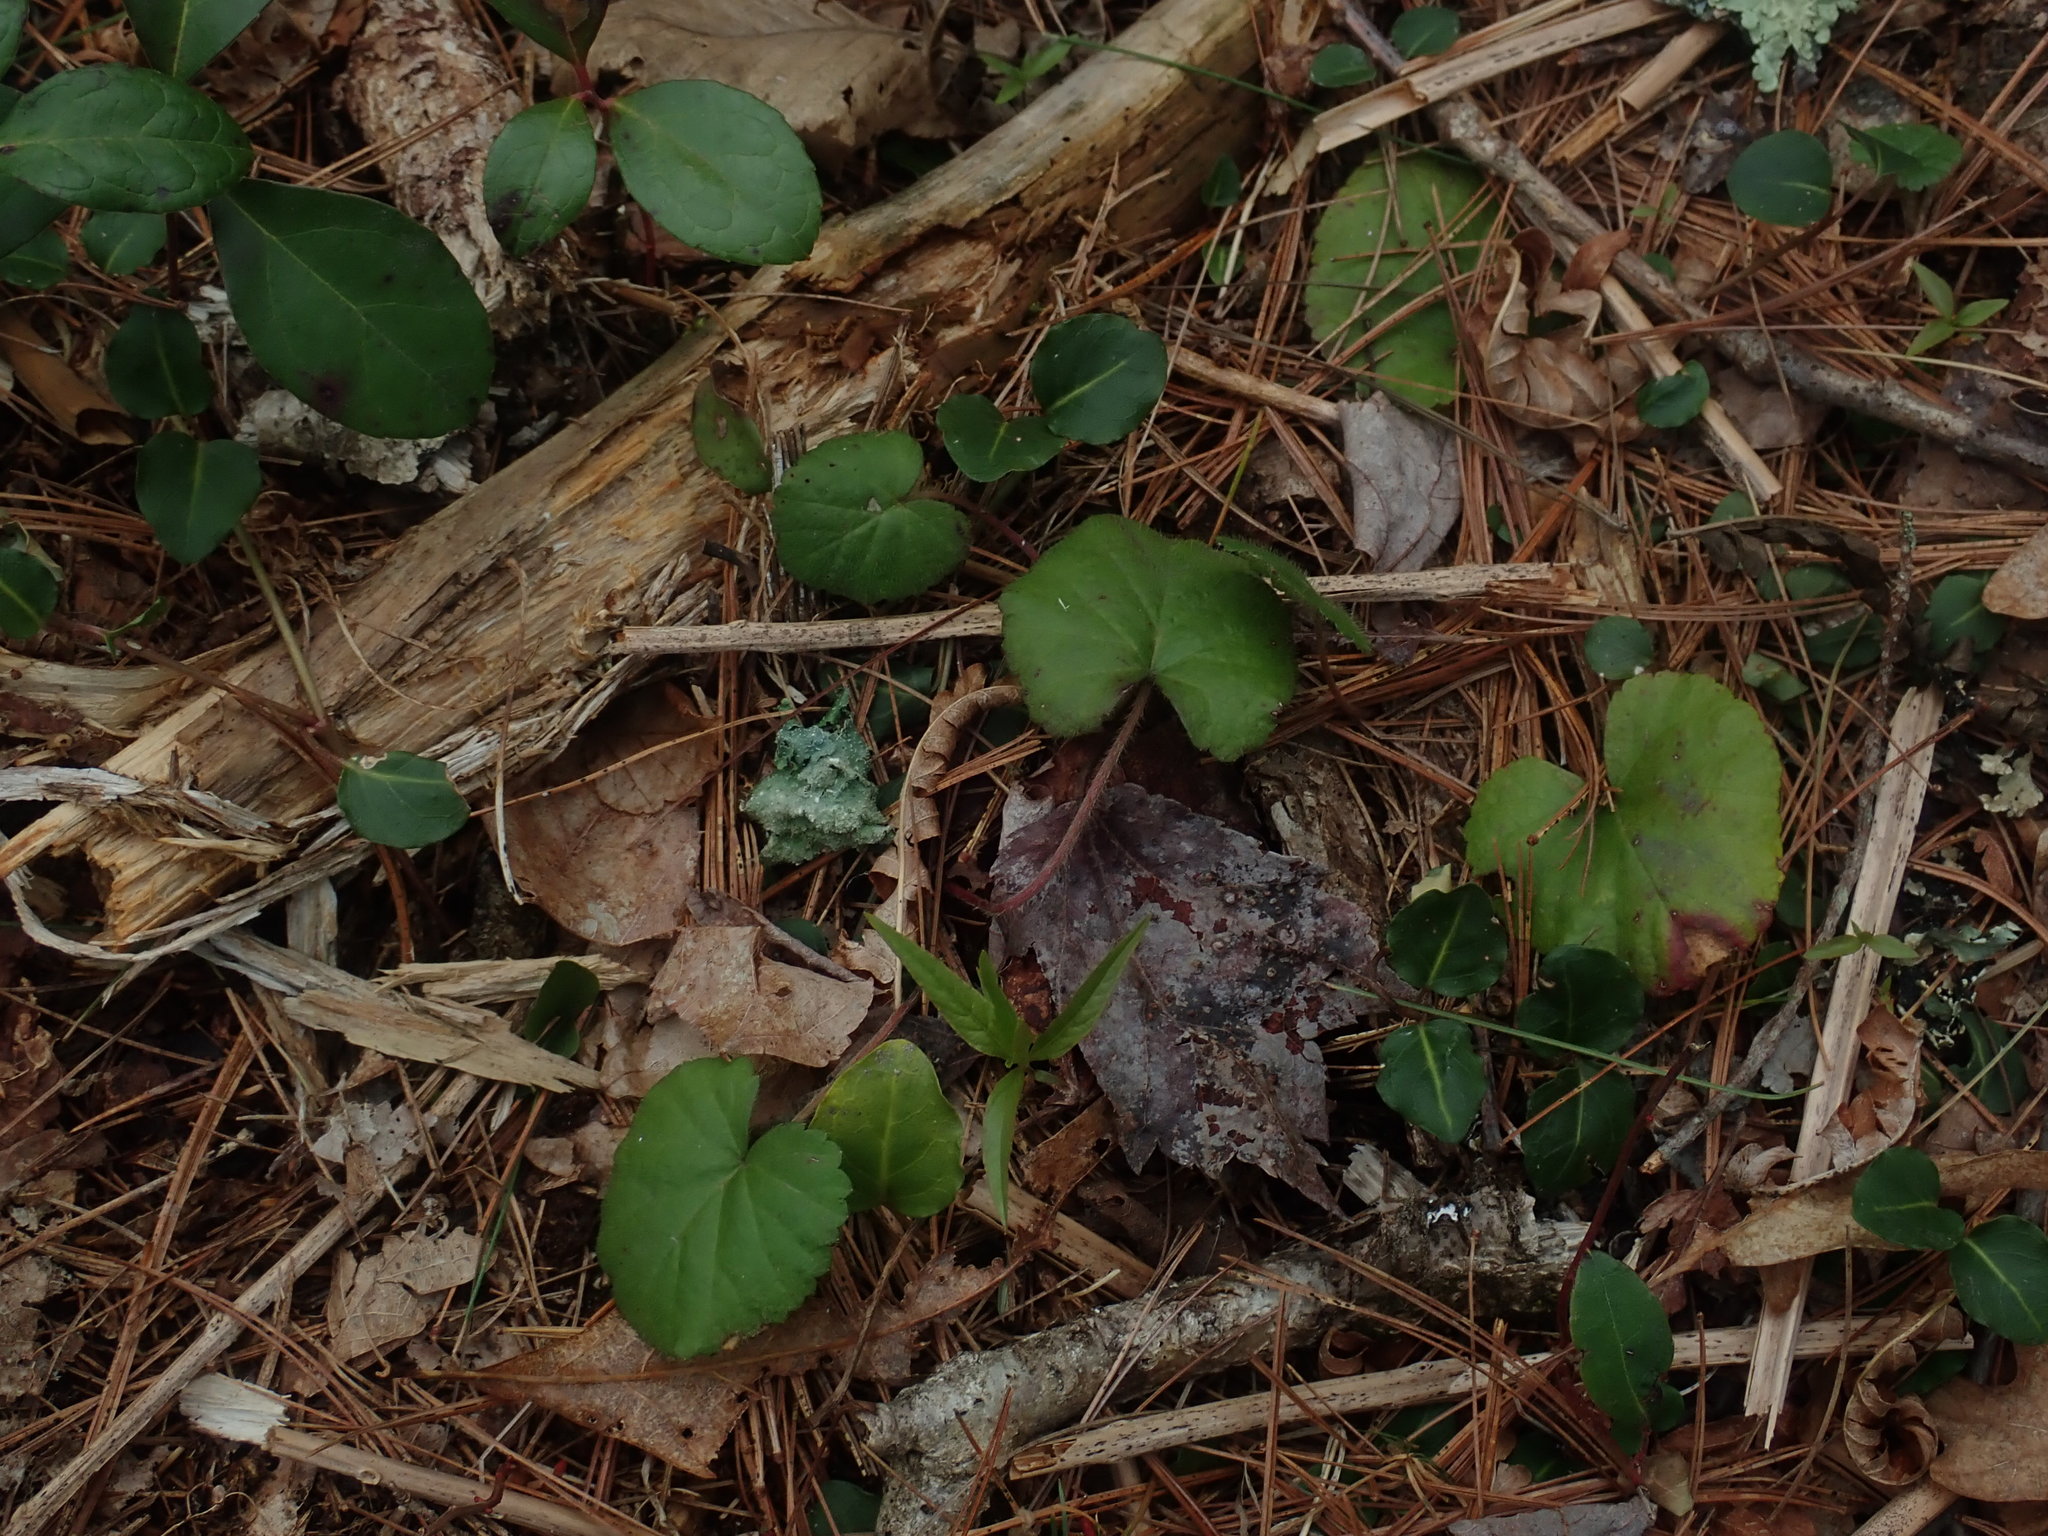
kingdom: Plantae
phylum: Tracheophyta
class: Magnoliopsida
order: Rosales
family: Rosaceae
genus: Dalibarda
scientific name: Dalibarda repens
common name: Dewdrop
